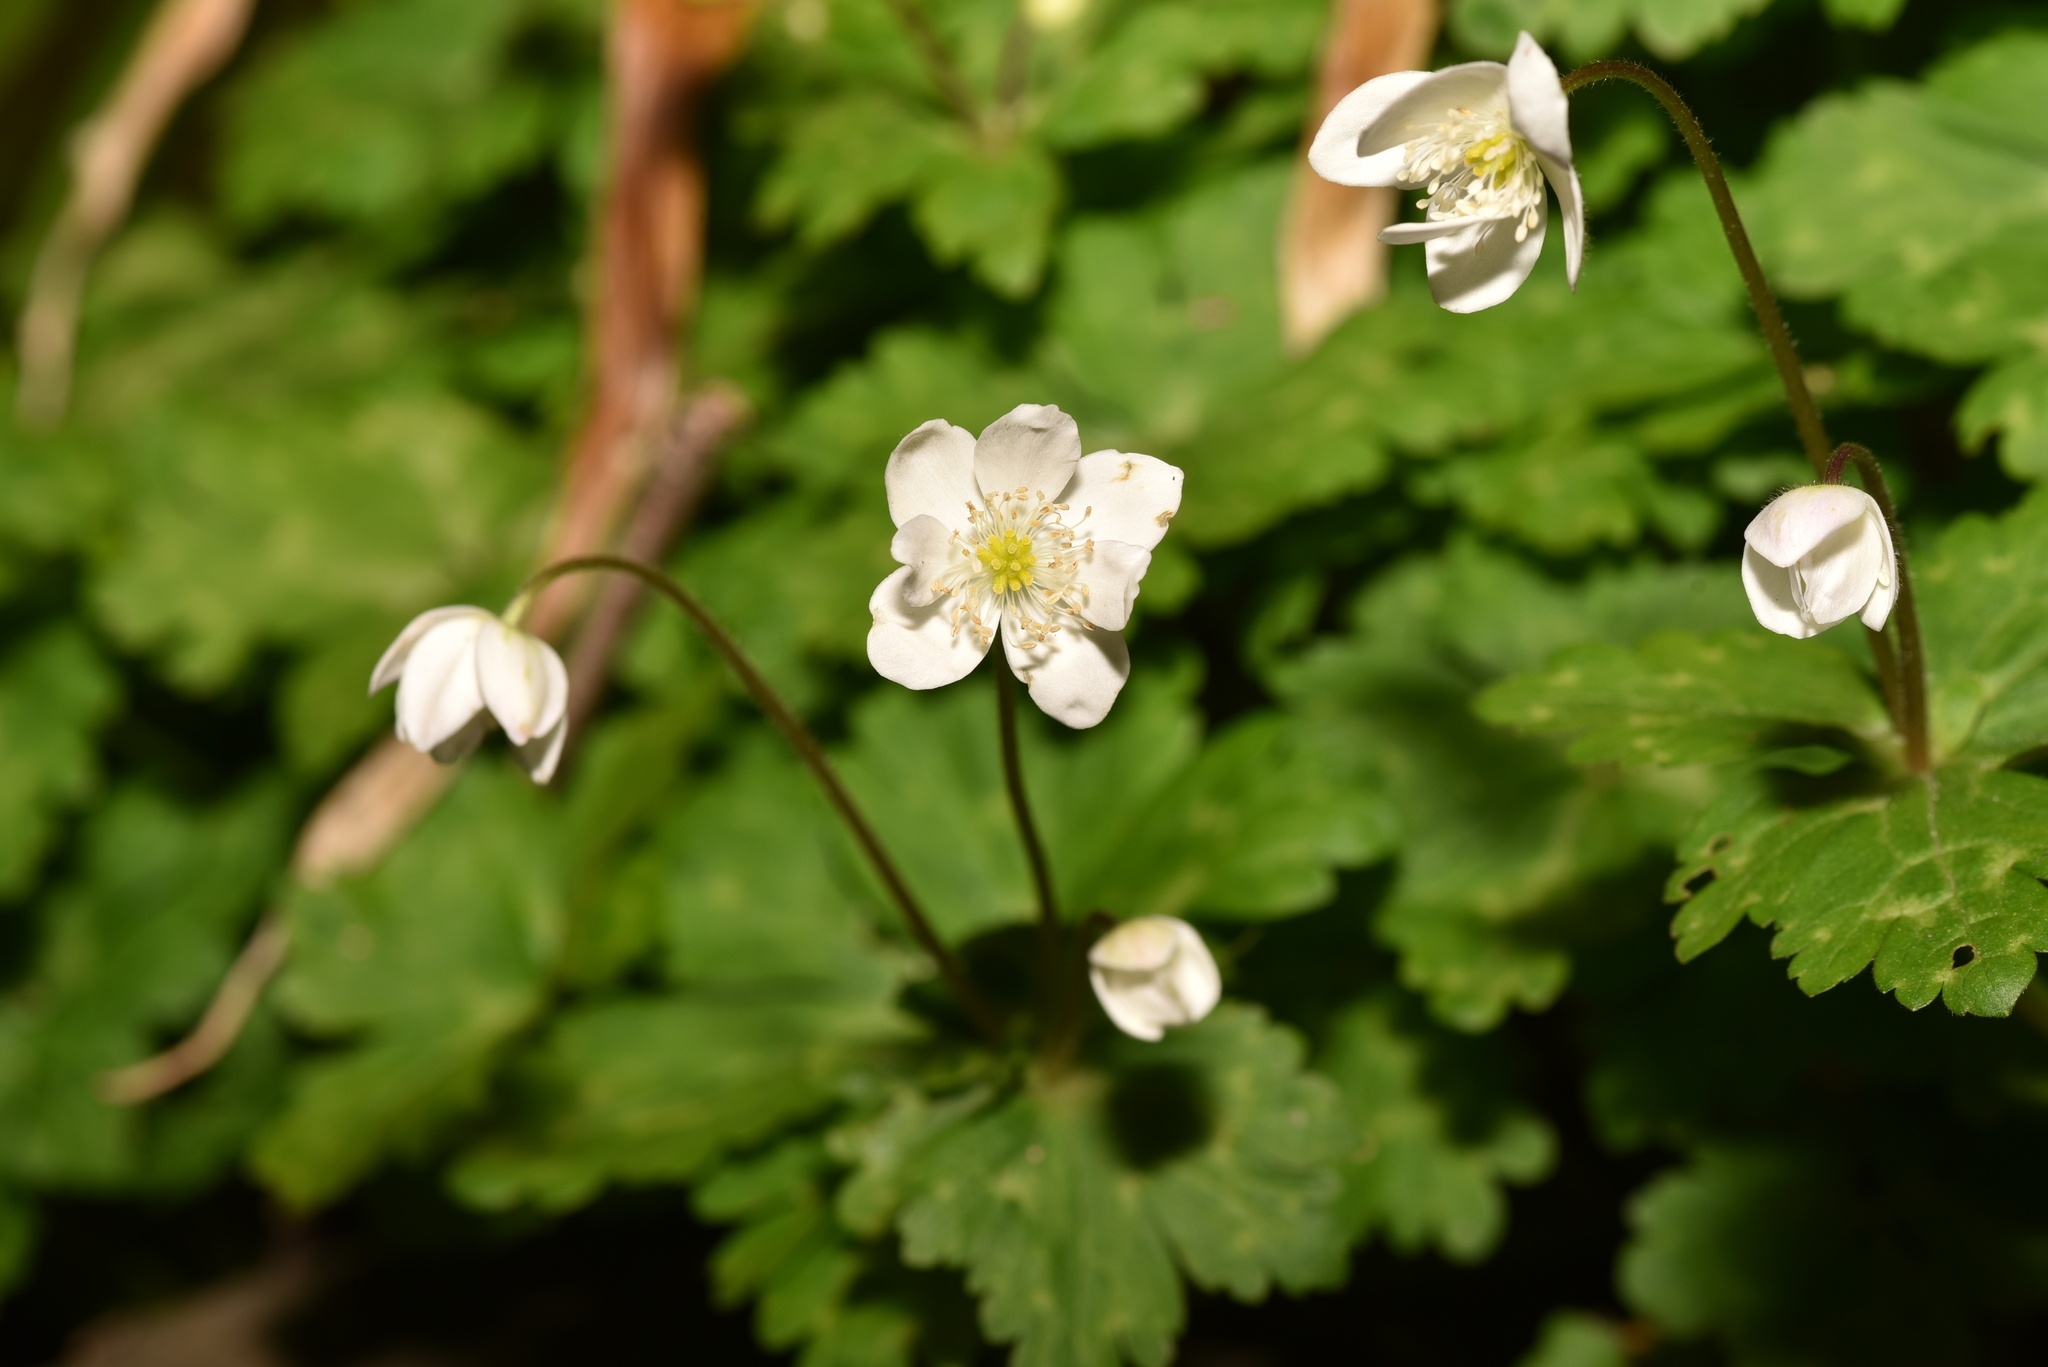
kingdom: Plantae
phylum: Tracheophyta
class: Magnoliopsida
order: Ranunculales
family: Ranunculaceae
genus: Anemonastrum
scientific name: Anemonastrum flaccidum
